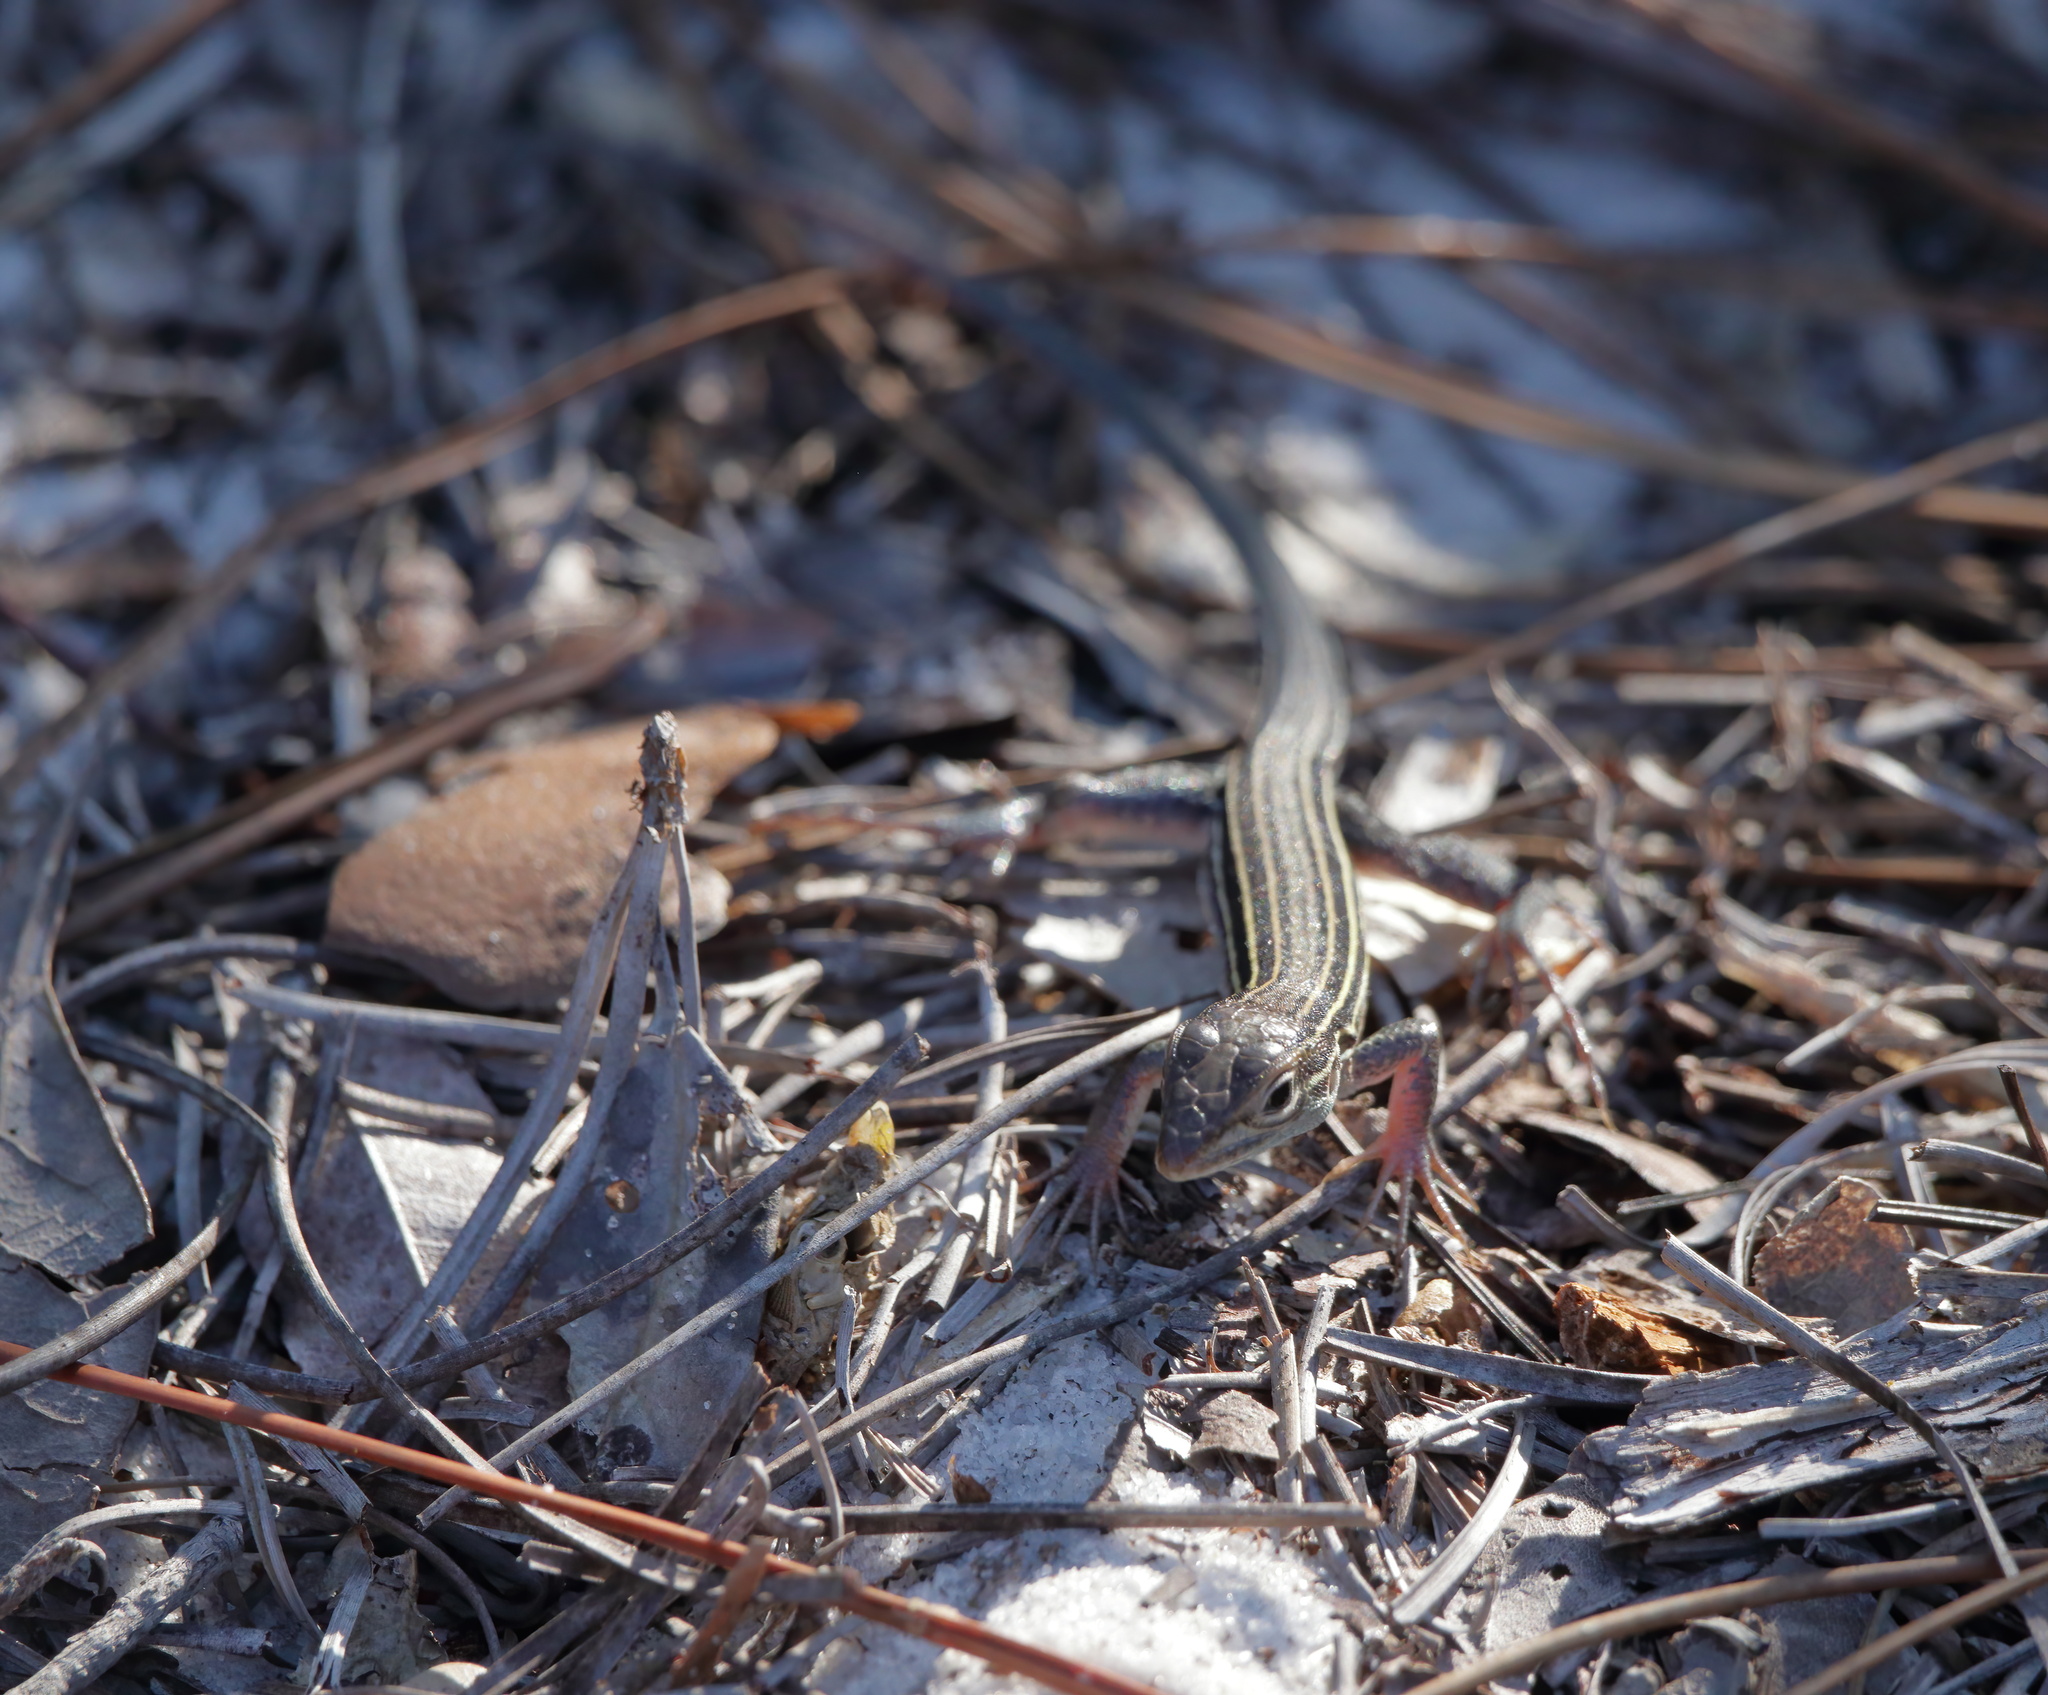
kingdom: Animalia
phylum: Chordata
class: Squamata
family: Teiidae
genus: Aspidoscelis
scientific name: Aspidoscelis sexlineatus
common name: Six-lined racerunner
